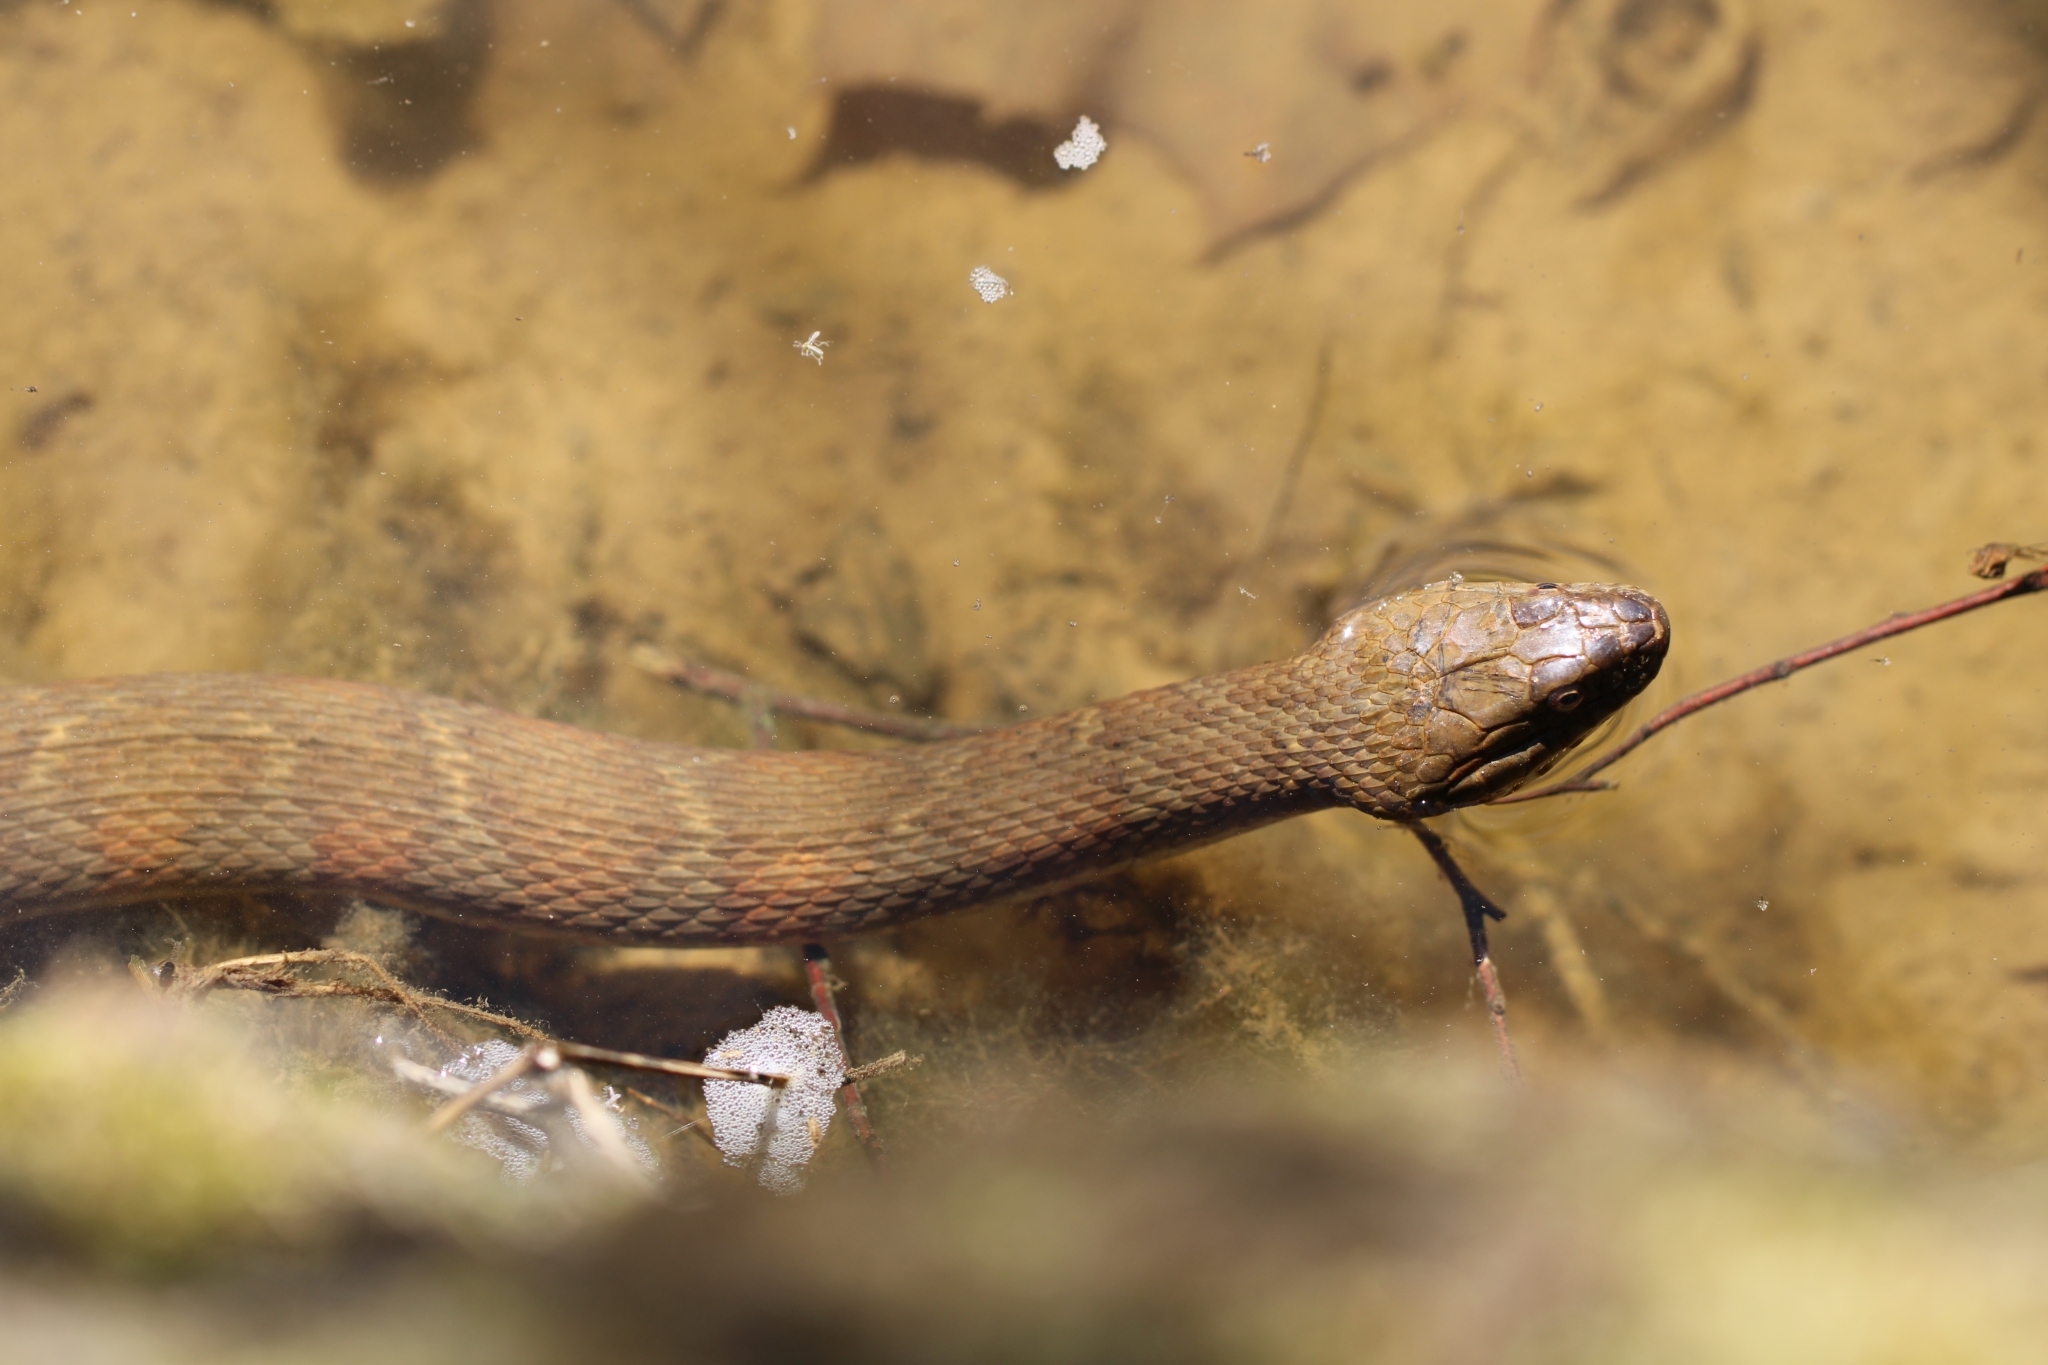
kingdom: Animalia
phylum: Chordata
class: Squamata
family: Colubridae
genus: Nerodia
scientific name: Nerodia sipedon
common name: Northern water snake
